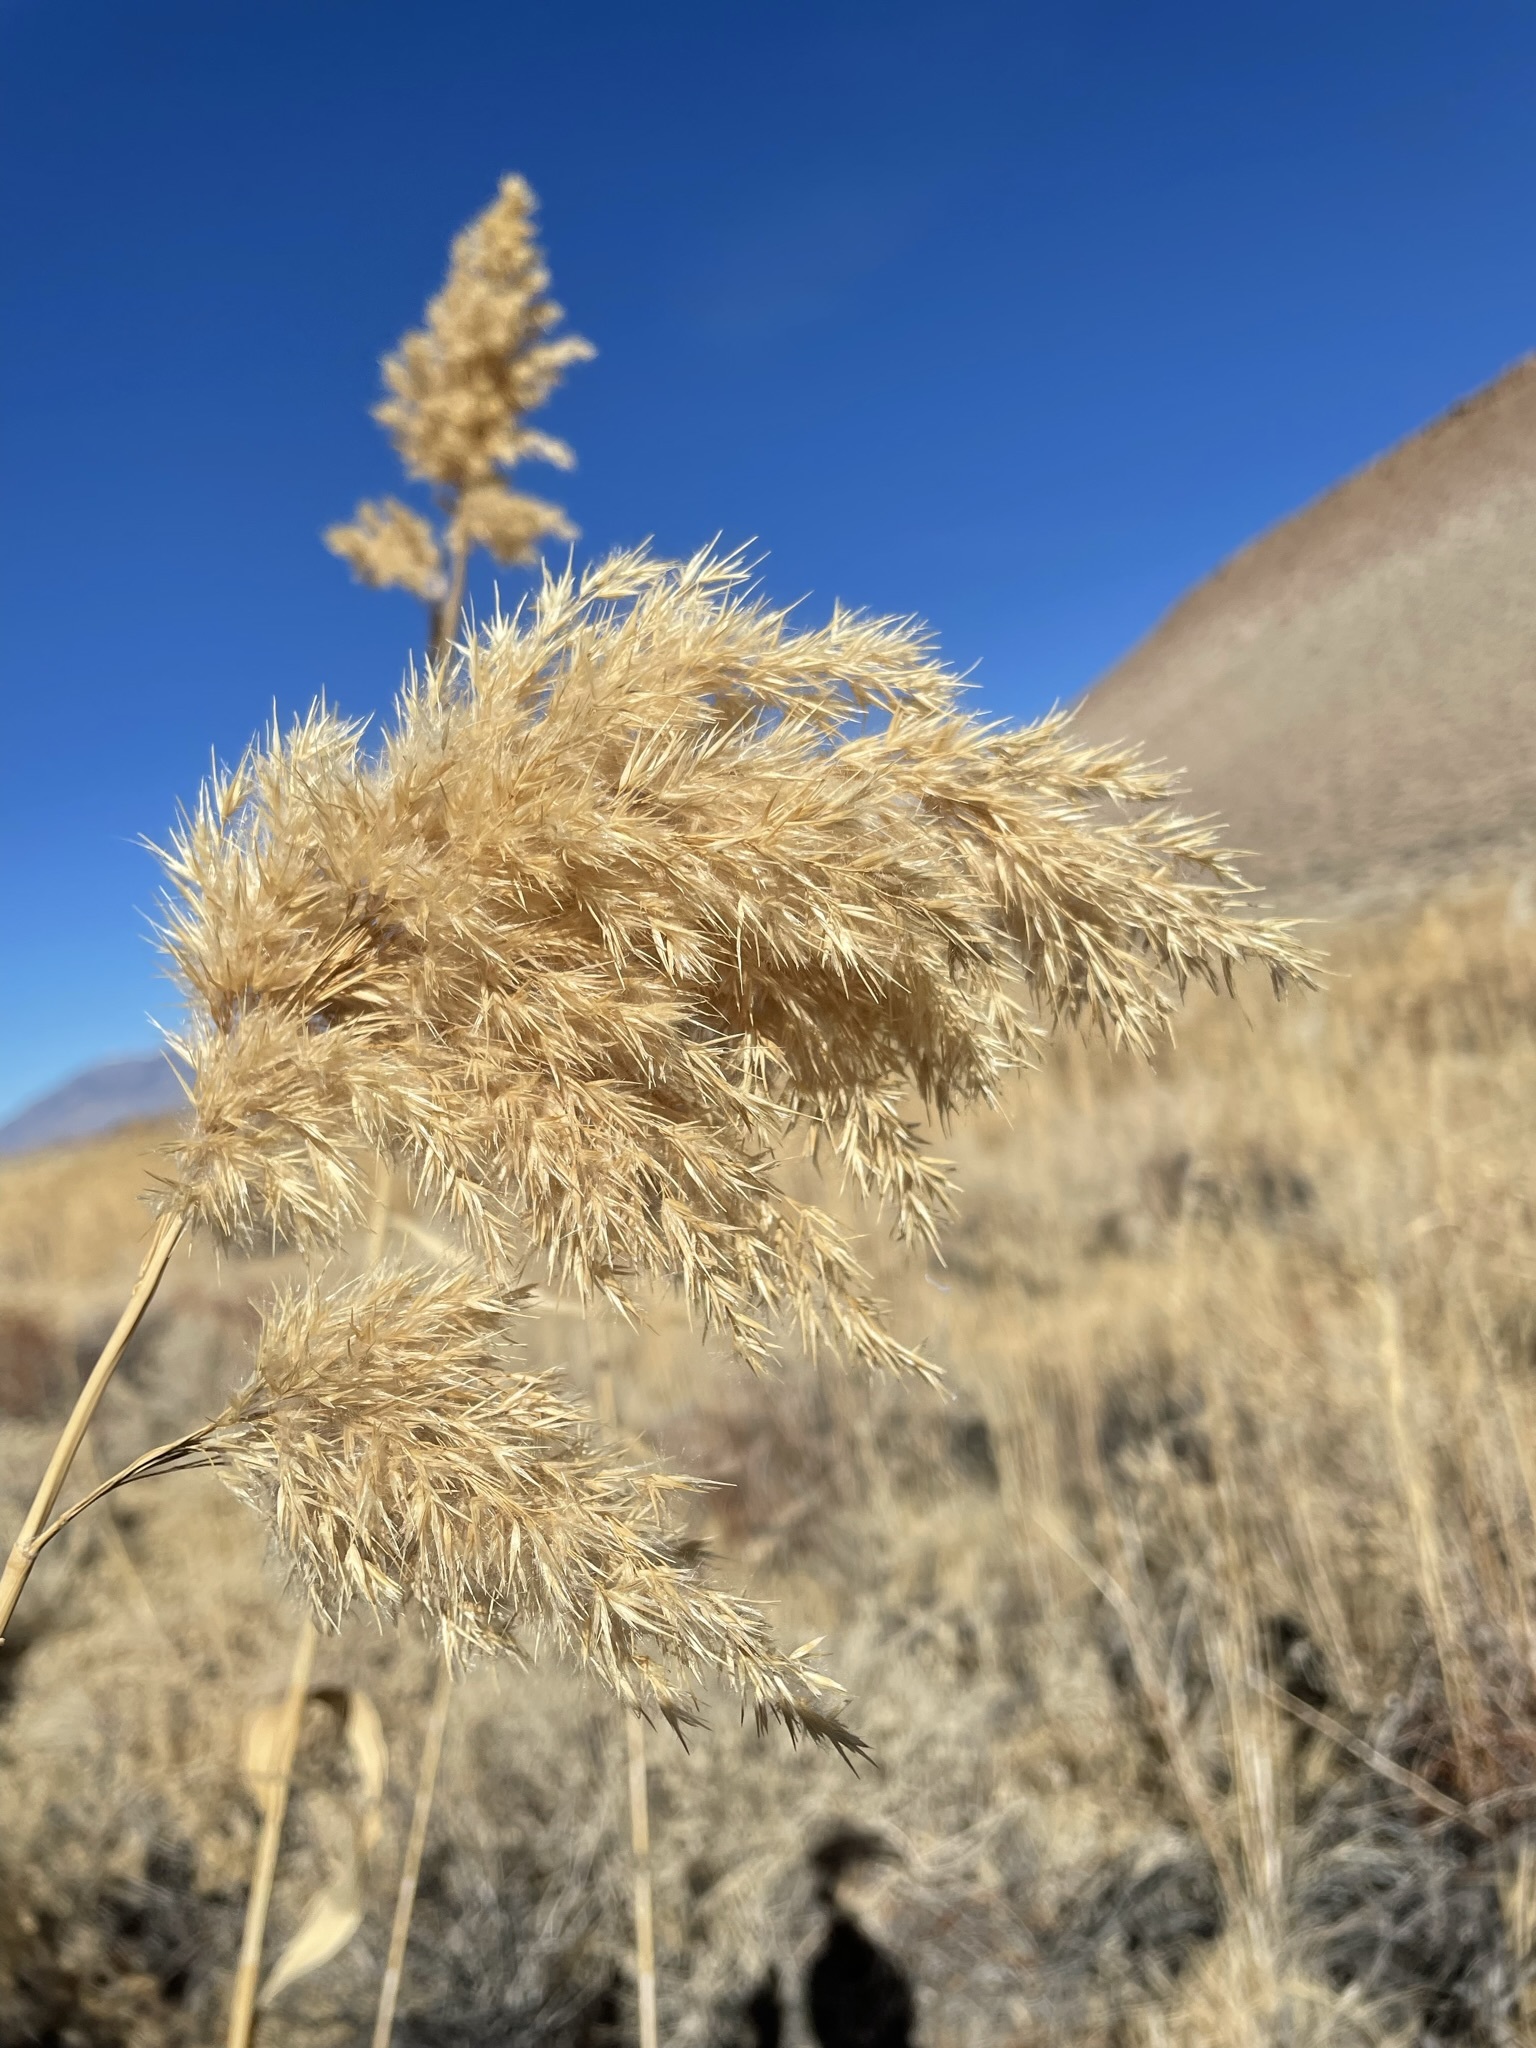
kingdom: Plantae
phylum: Tracheophyta
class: Liliopsida
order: Poales
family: Poaceae
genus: Phragmites
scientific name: Phragmites australis
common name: Common reed
